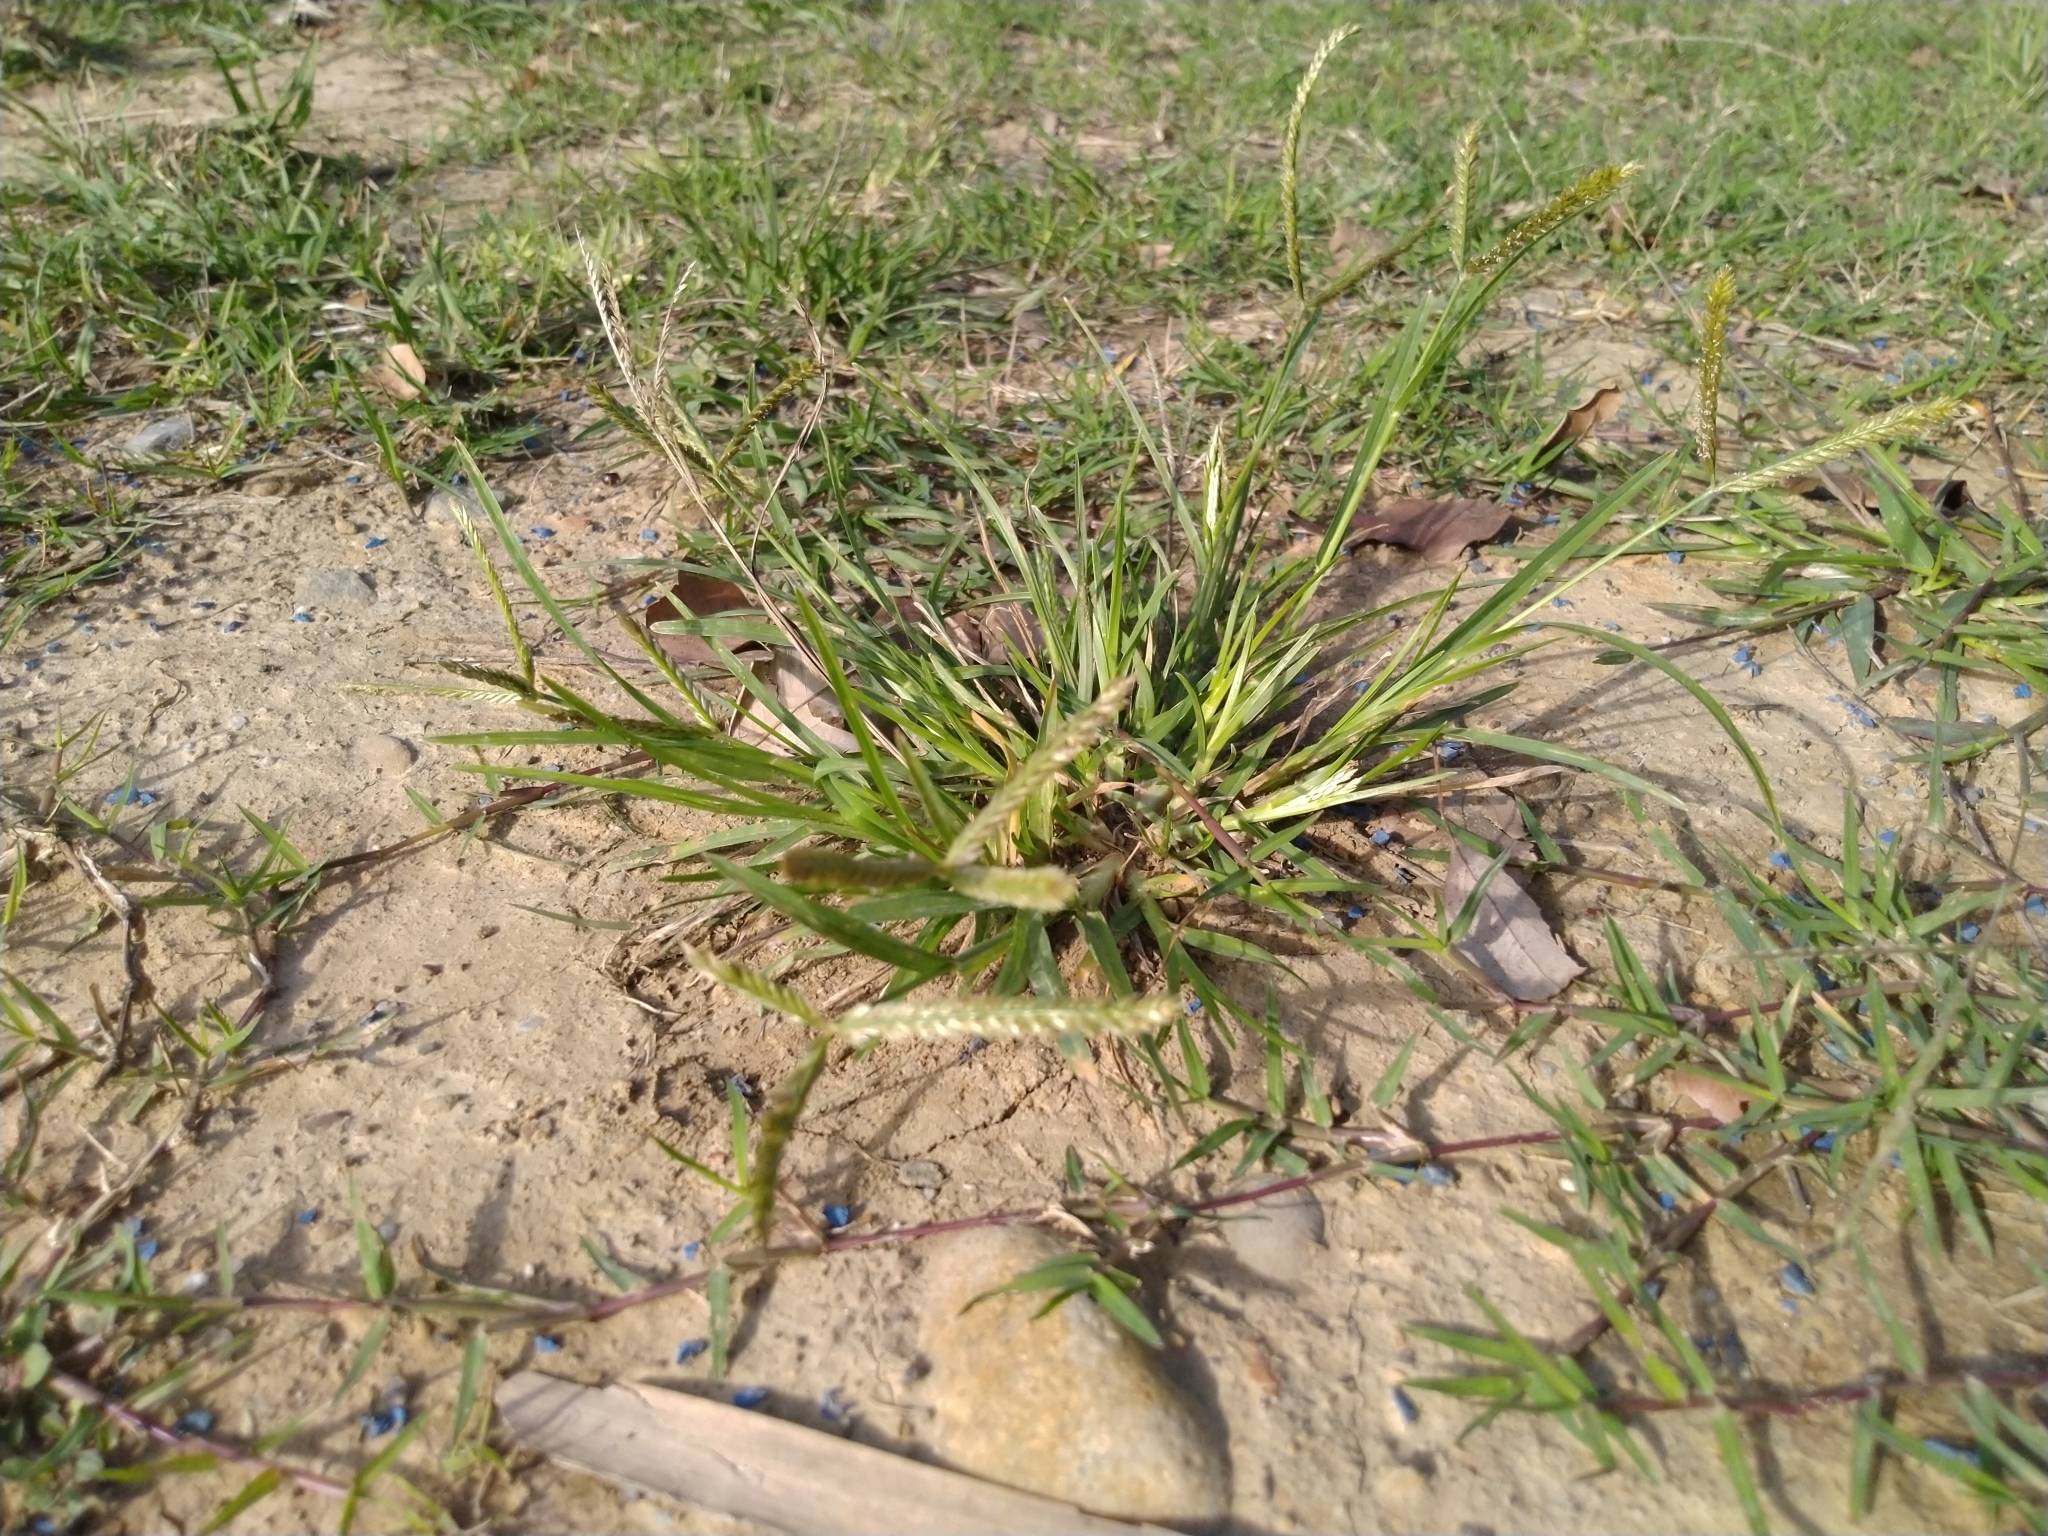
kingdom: Plantae
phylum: Tracheophyta
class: Liliopsida
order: Poales
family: Poaceae
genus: Eleusine
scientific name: Eleusine indica
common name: Yard-grass
